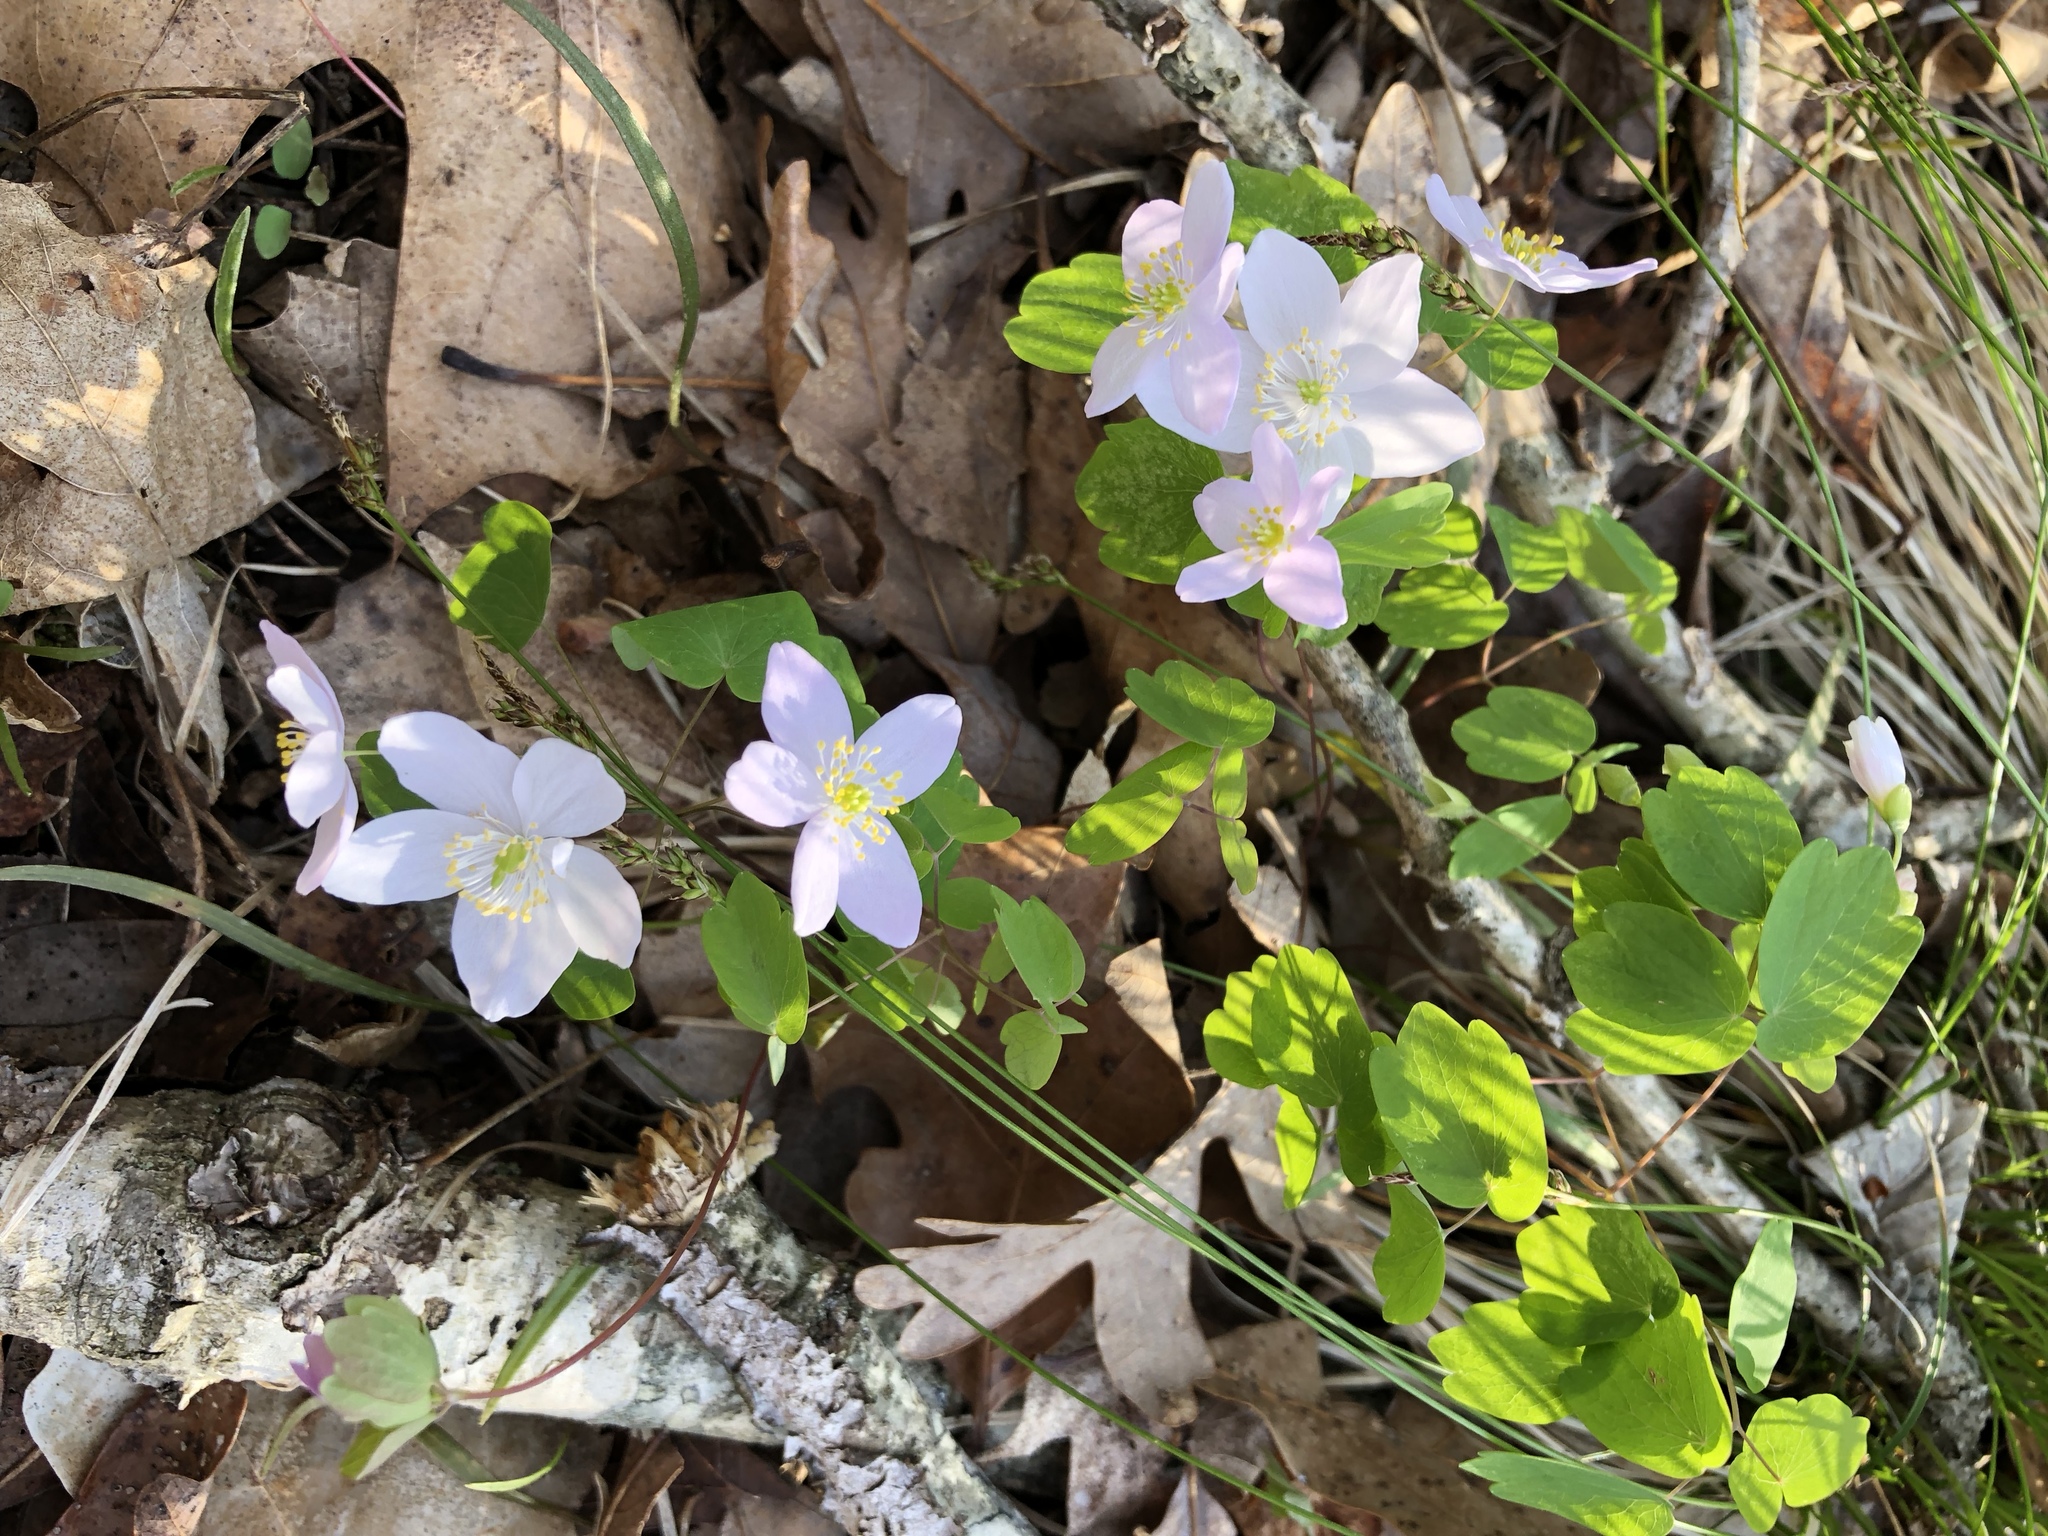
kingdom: Plantae
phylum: Tracheophyta
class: Magnoliopsida
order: Ranunculales
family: Ranunculaceae
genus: Thalictrum
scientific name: Thalictrum thalictroides
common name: Rue-anemone
